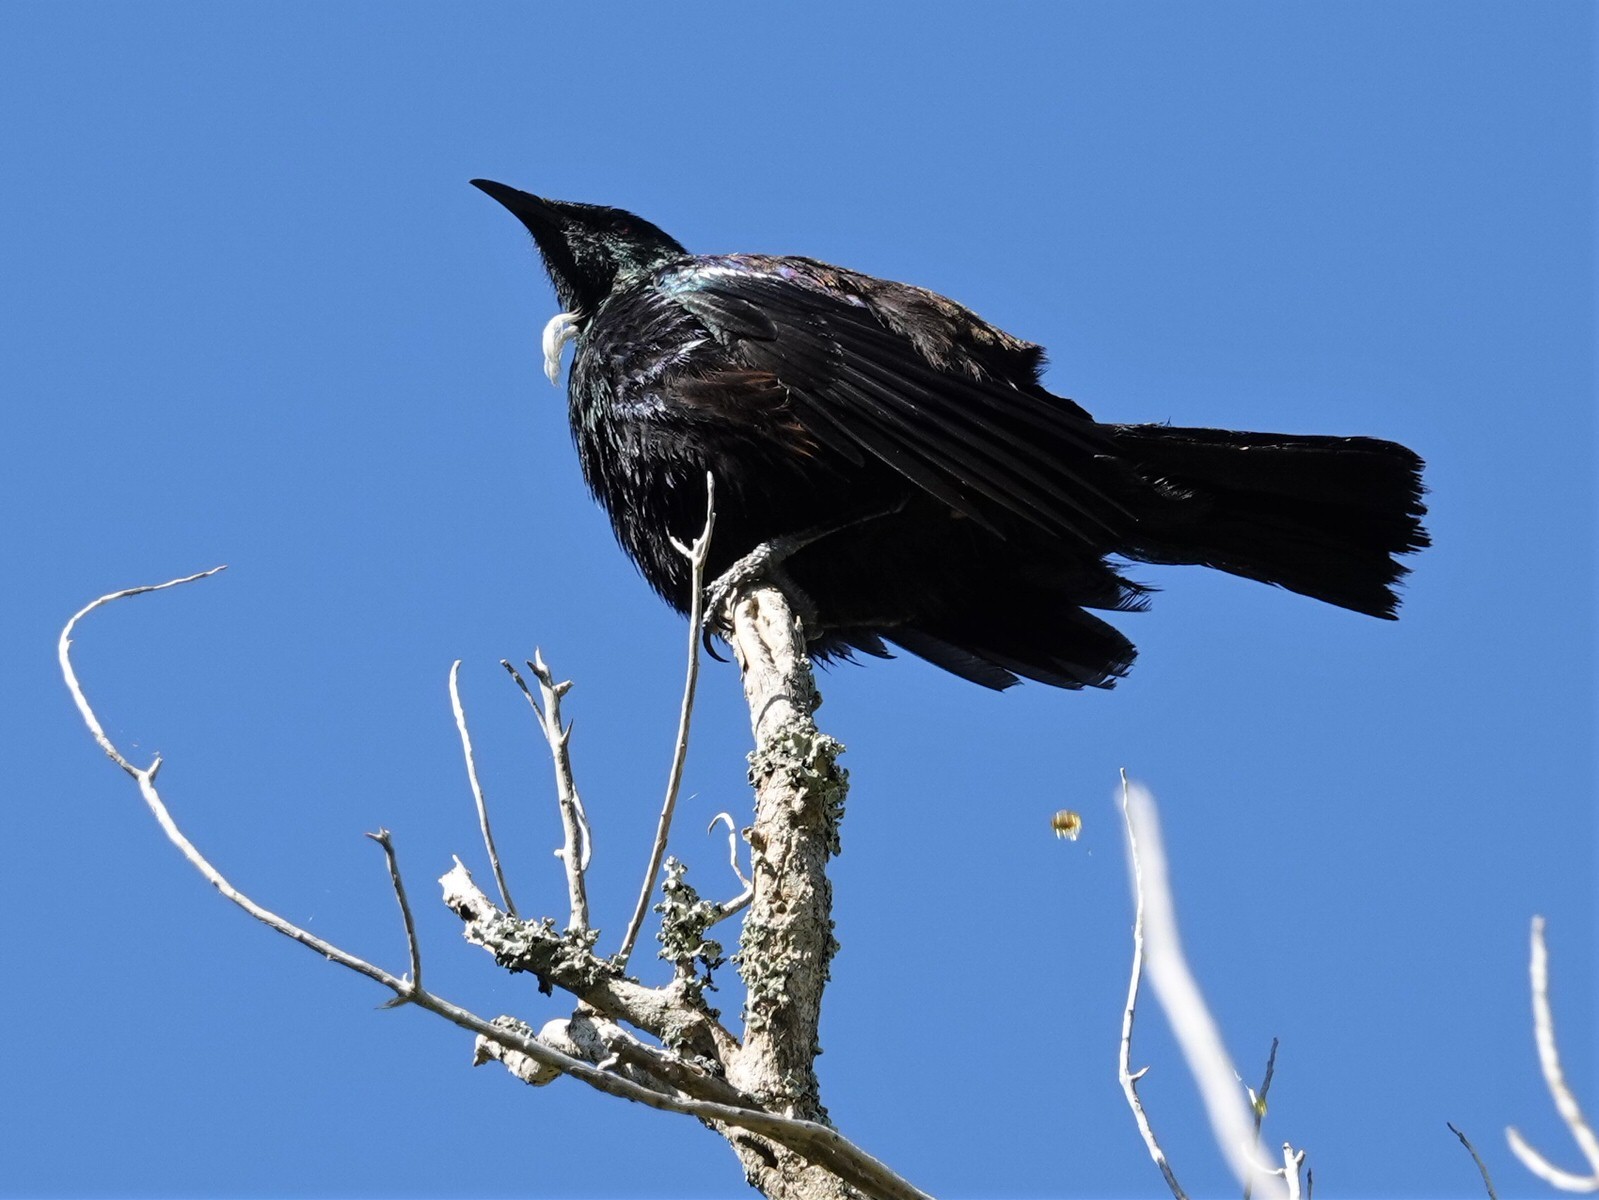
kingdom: Animalia
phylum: Chordata
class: Aves
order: Passeriformes
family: Meliphagidae
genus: Prosthemadera
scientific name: Prosthemadera novaeseelandiae
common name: Tui
